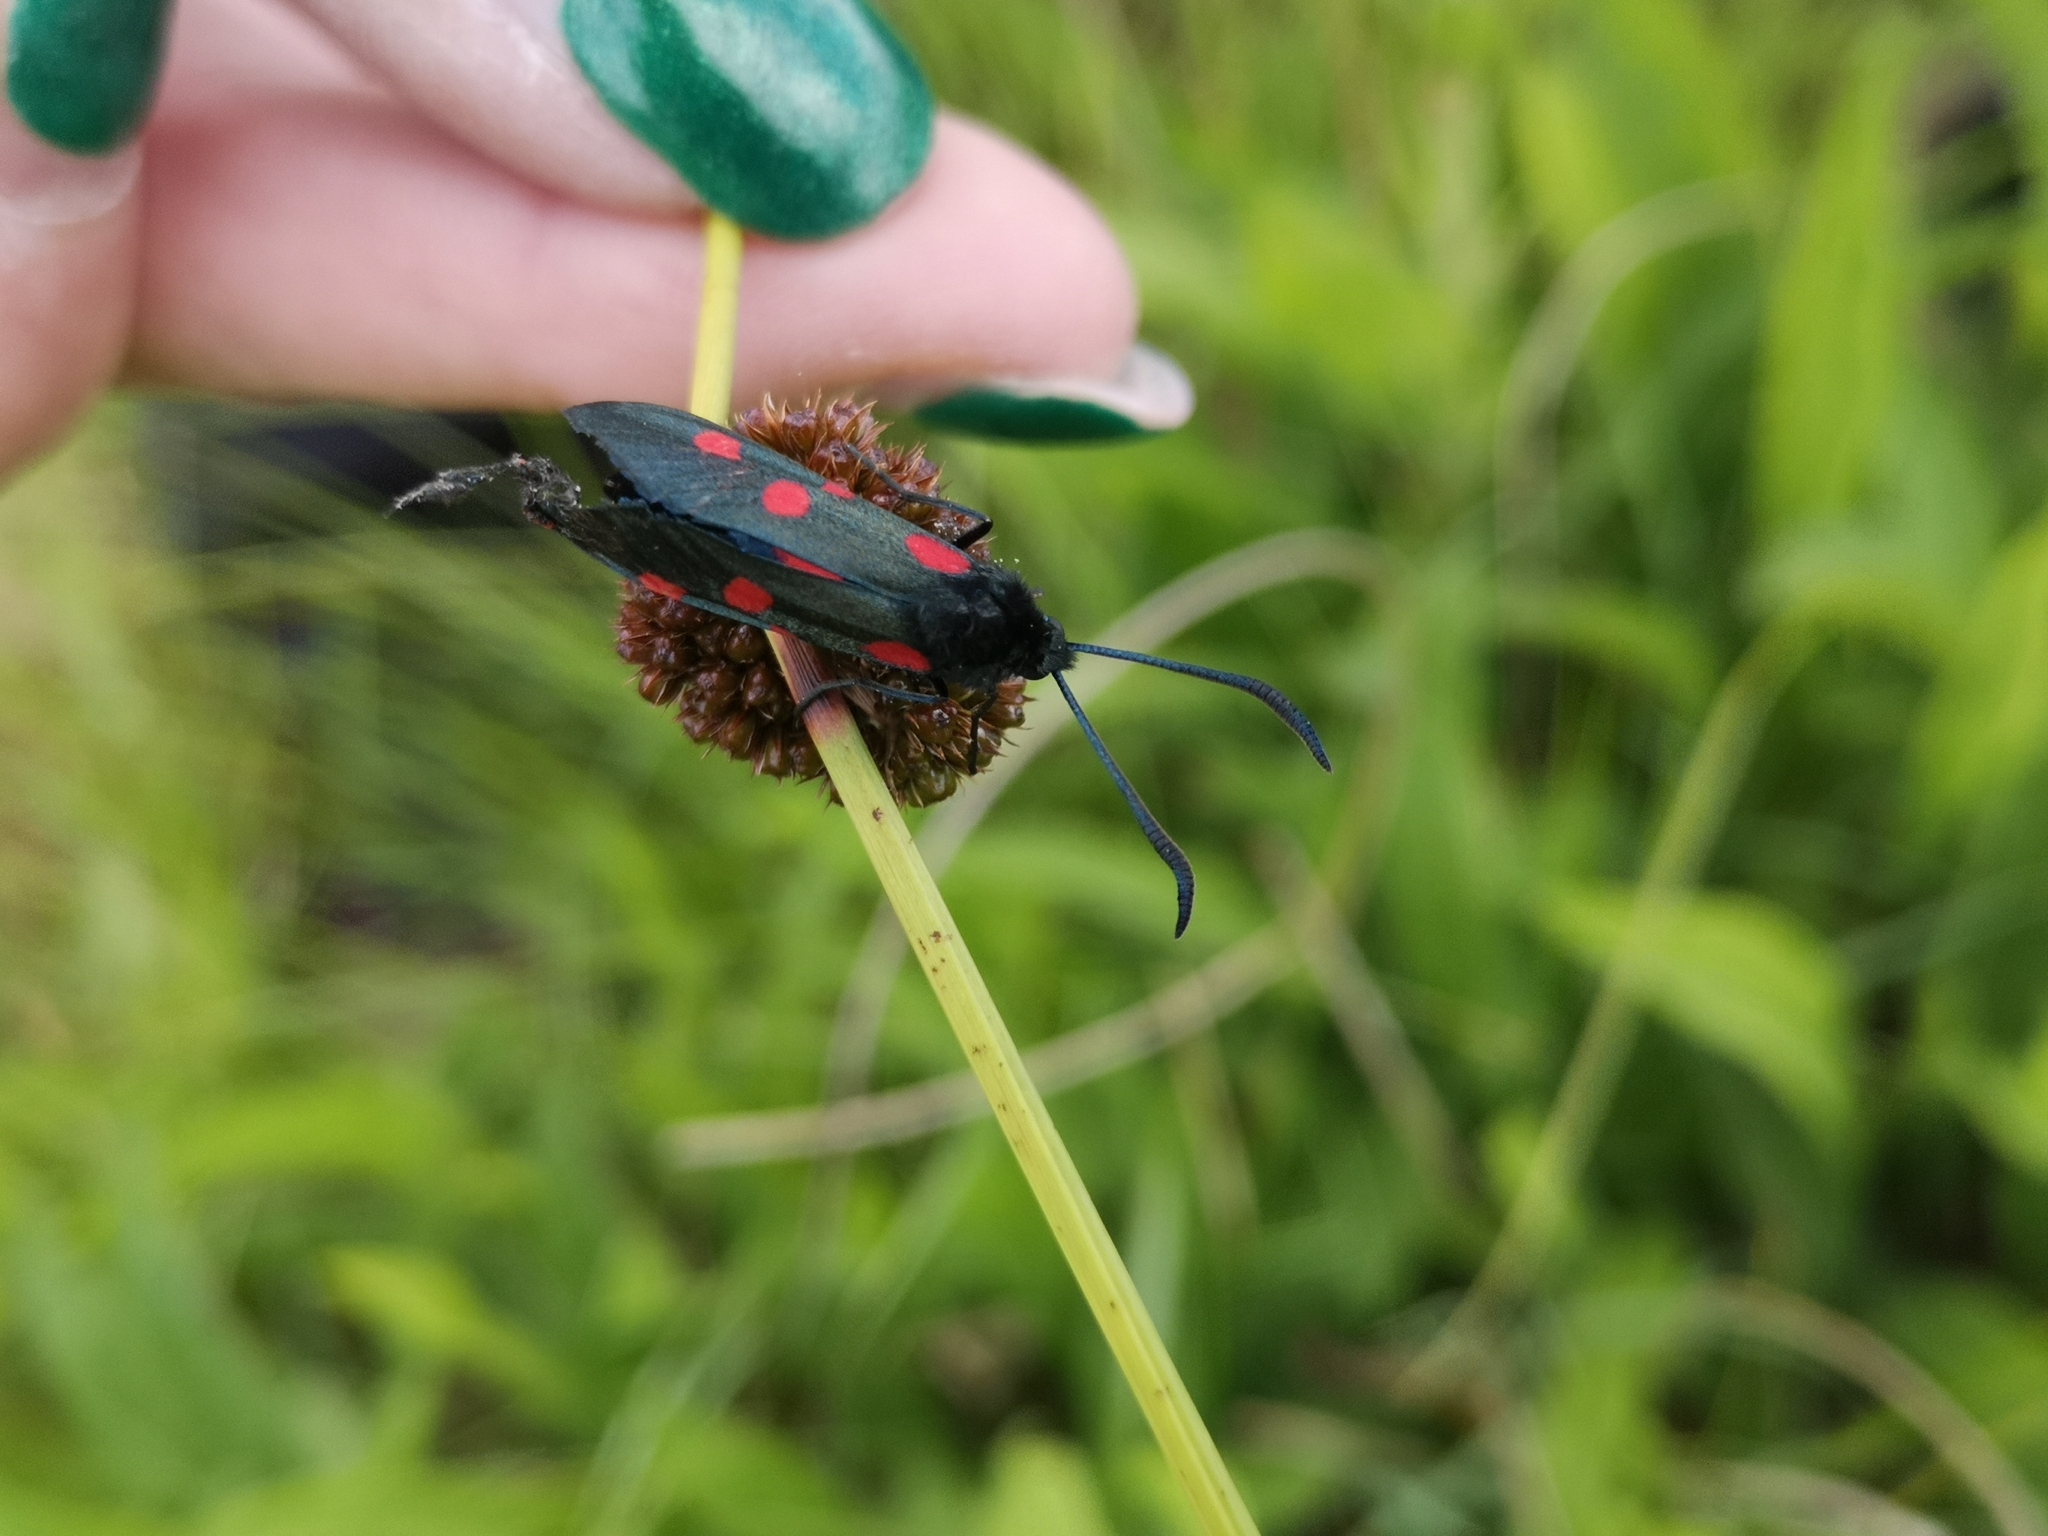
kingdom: Animalia
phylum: Arthropoda
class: Insecta
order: Lepidoptera
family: Zygaenidae
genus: Zygaena
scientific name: Zygaena lonicerae
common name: Narrow-bordered five-spot burnet
